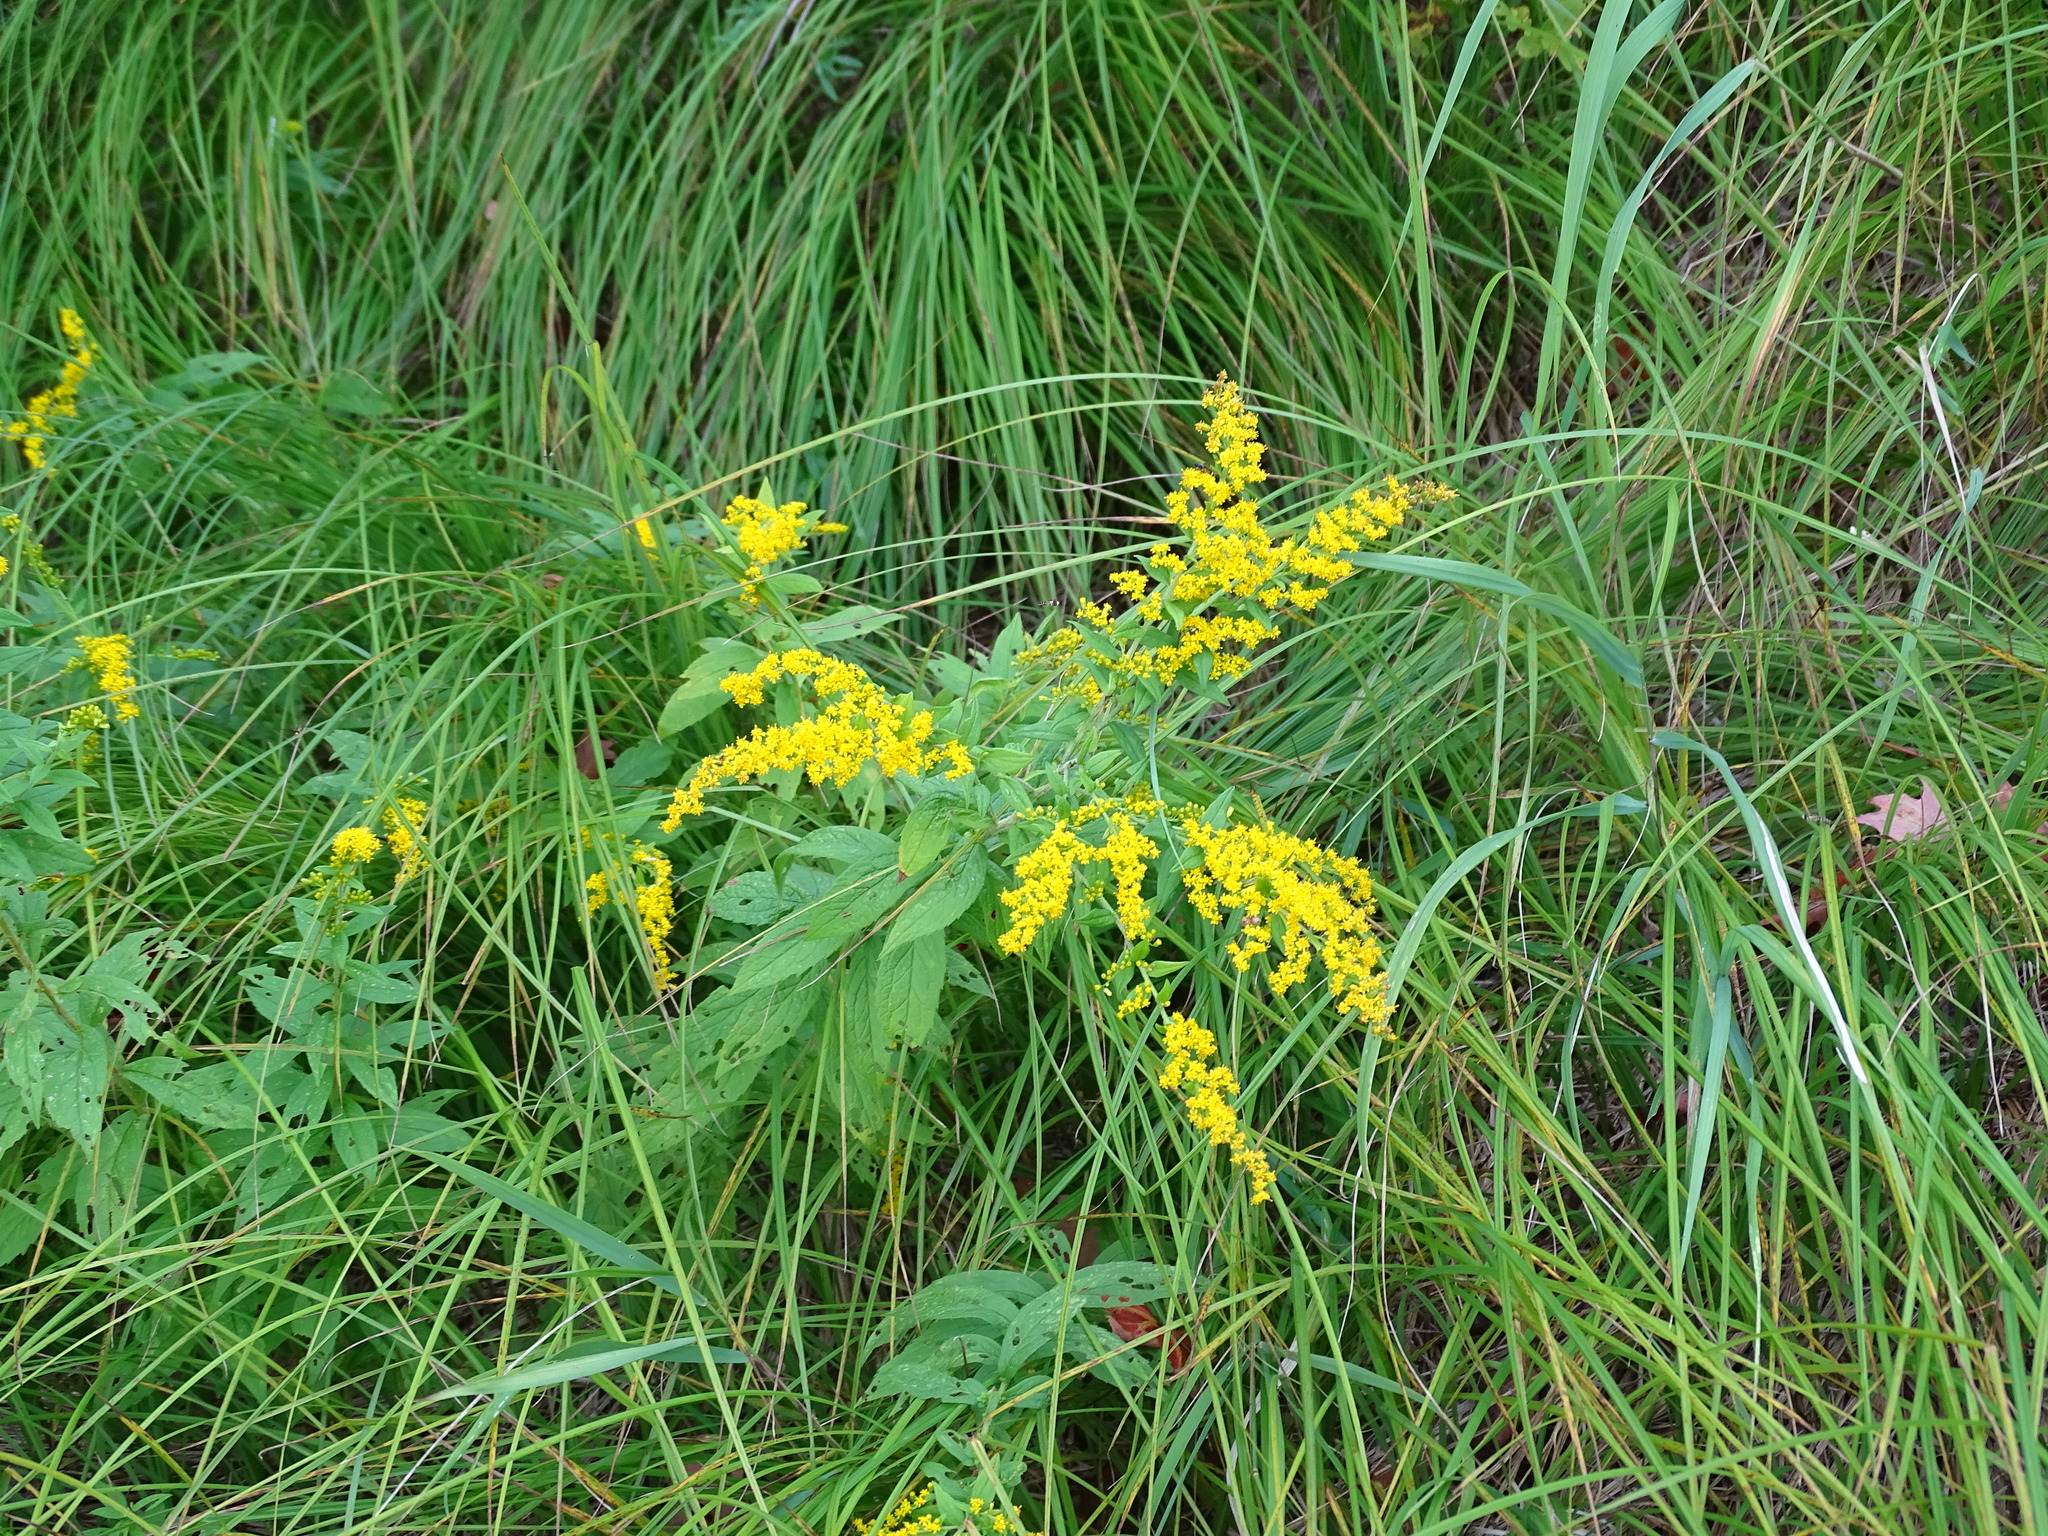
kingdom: Plantae
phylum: Tracheophyta
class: Magnoliopsida
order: Asterales
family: Asteraceae
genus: Solidago
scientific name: Solidago rugosa
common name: Rough-stemmed goldenrod
